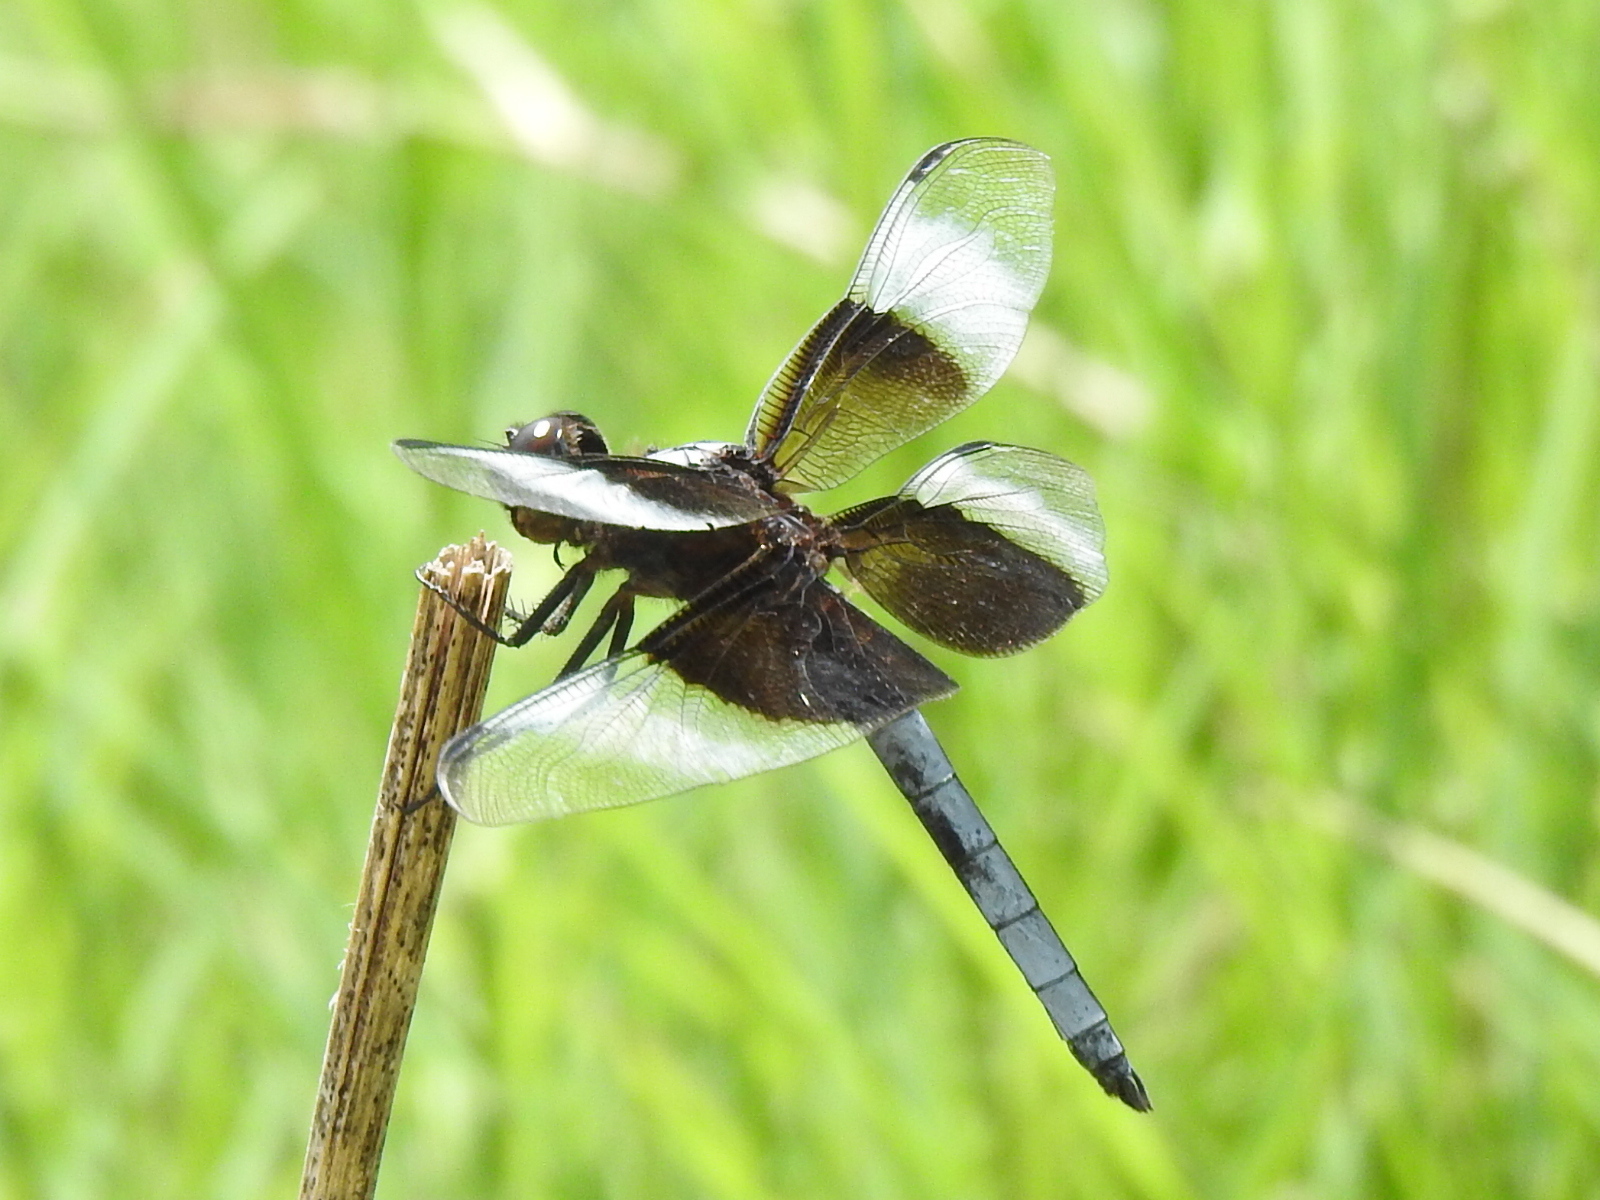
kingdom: Animalia
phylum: Arthropoda
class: Insecta
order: Odonata
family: Libellulidae
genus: Libellula
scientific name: Libellula luctuosa
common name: Widow skimmer
